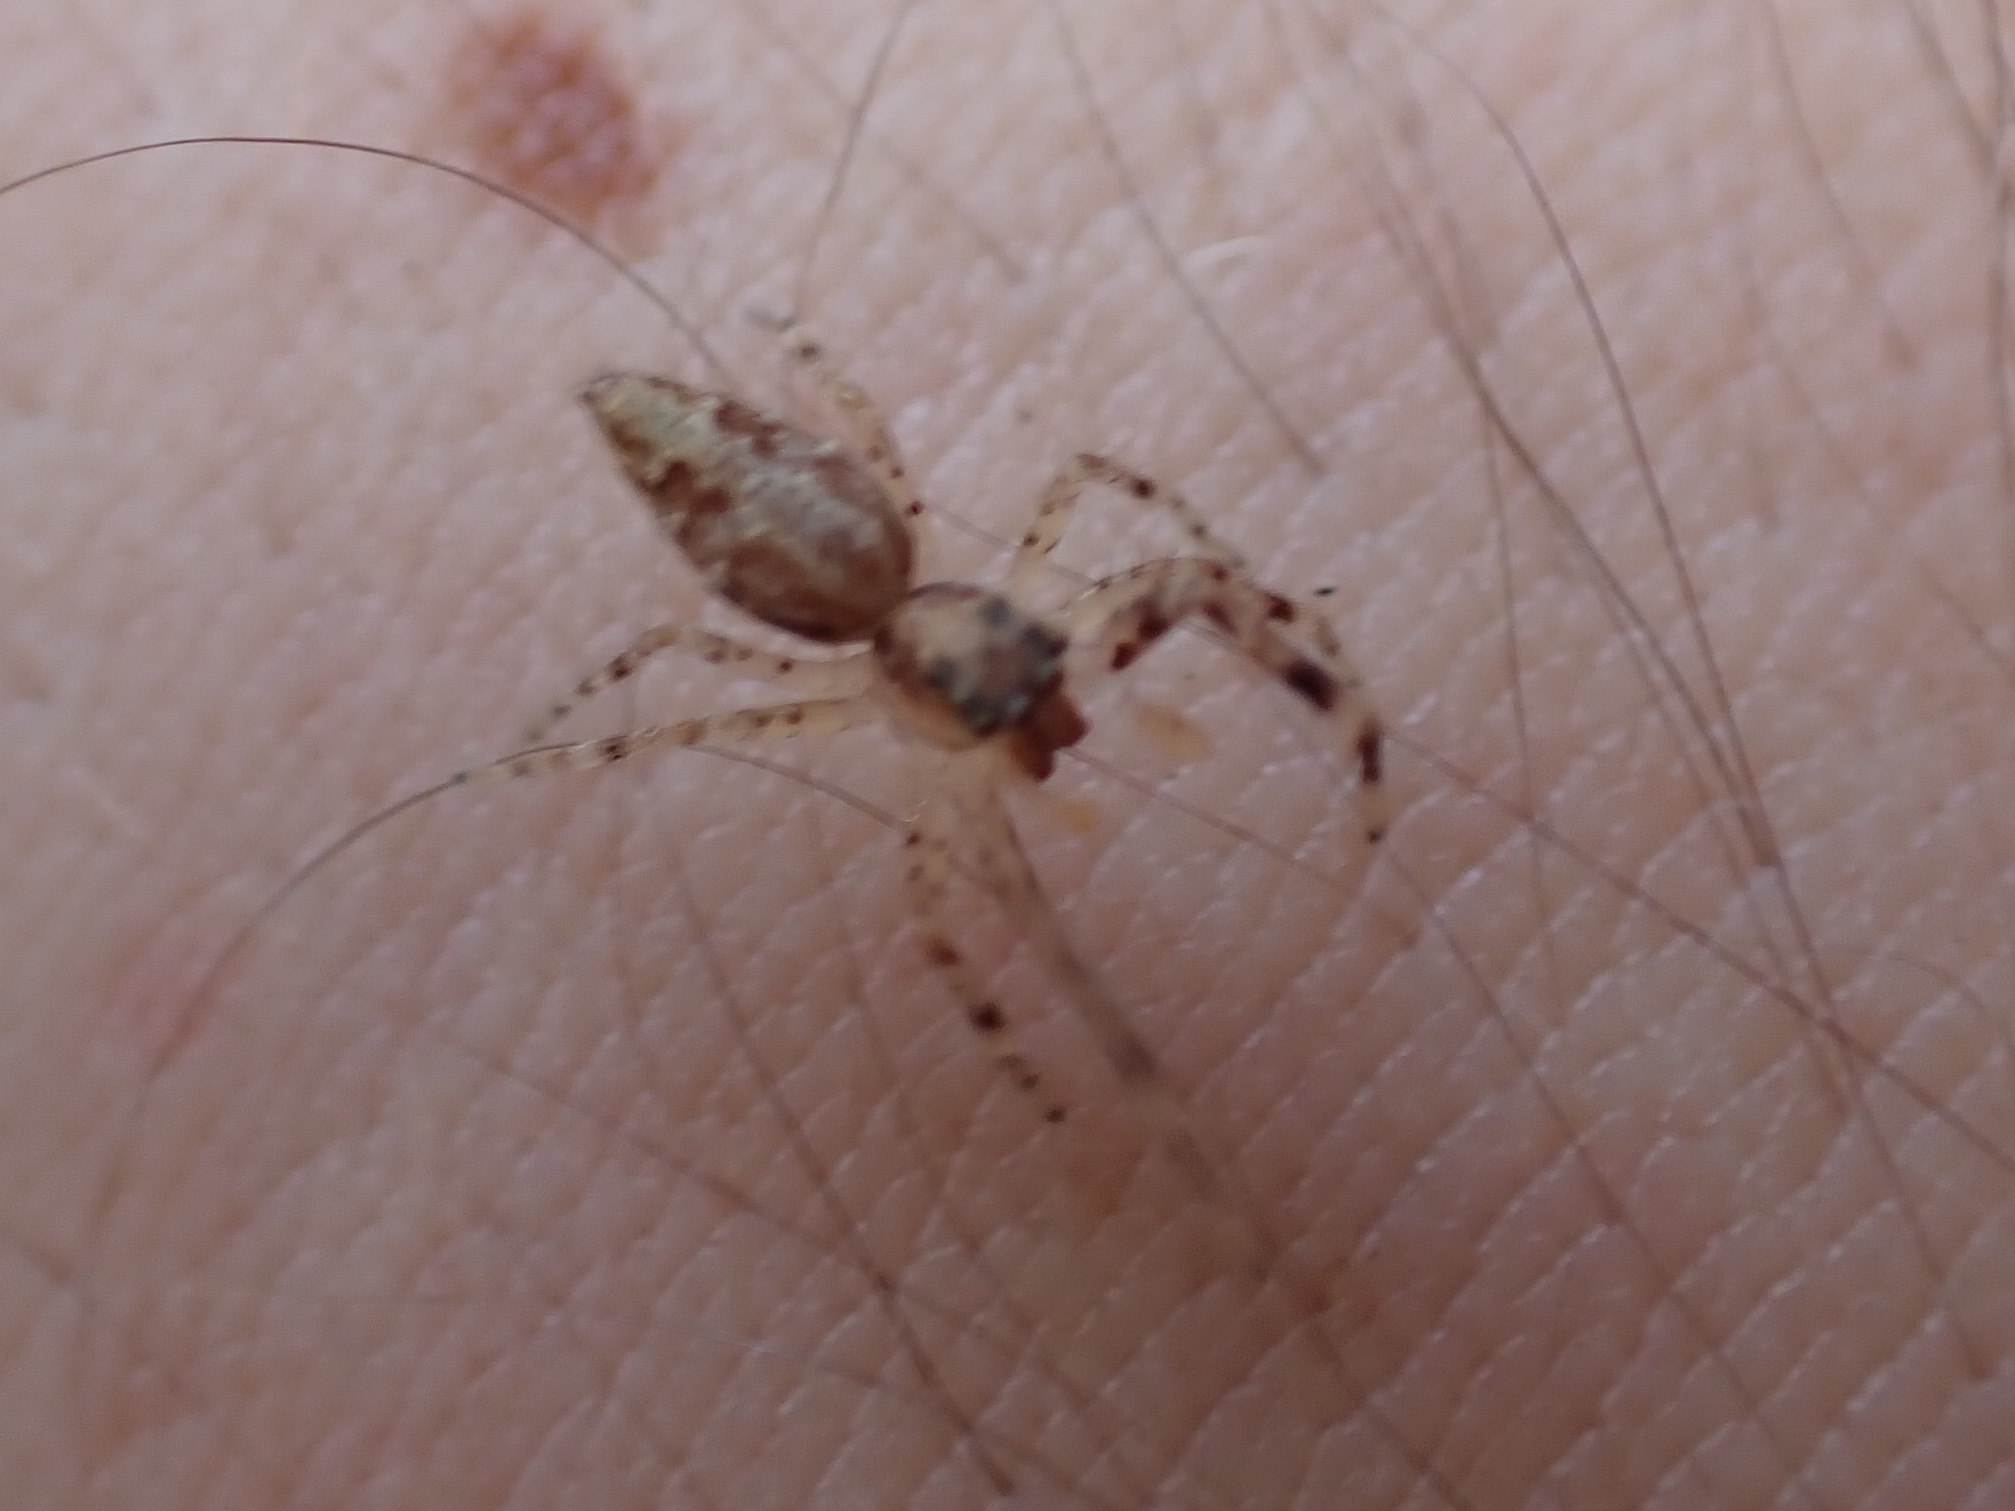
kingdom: Animalia
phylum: Arthropoda
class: Arachnida
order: Araneae
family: Salticidae
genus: Helpis
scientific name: Helpis minitabunda
